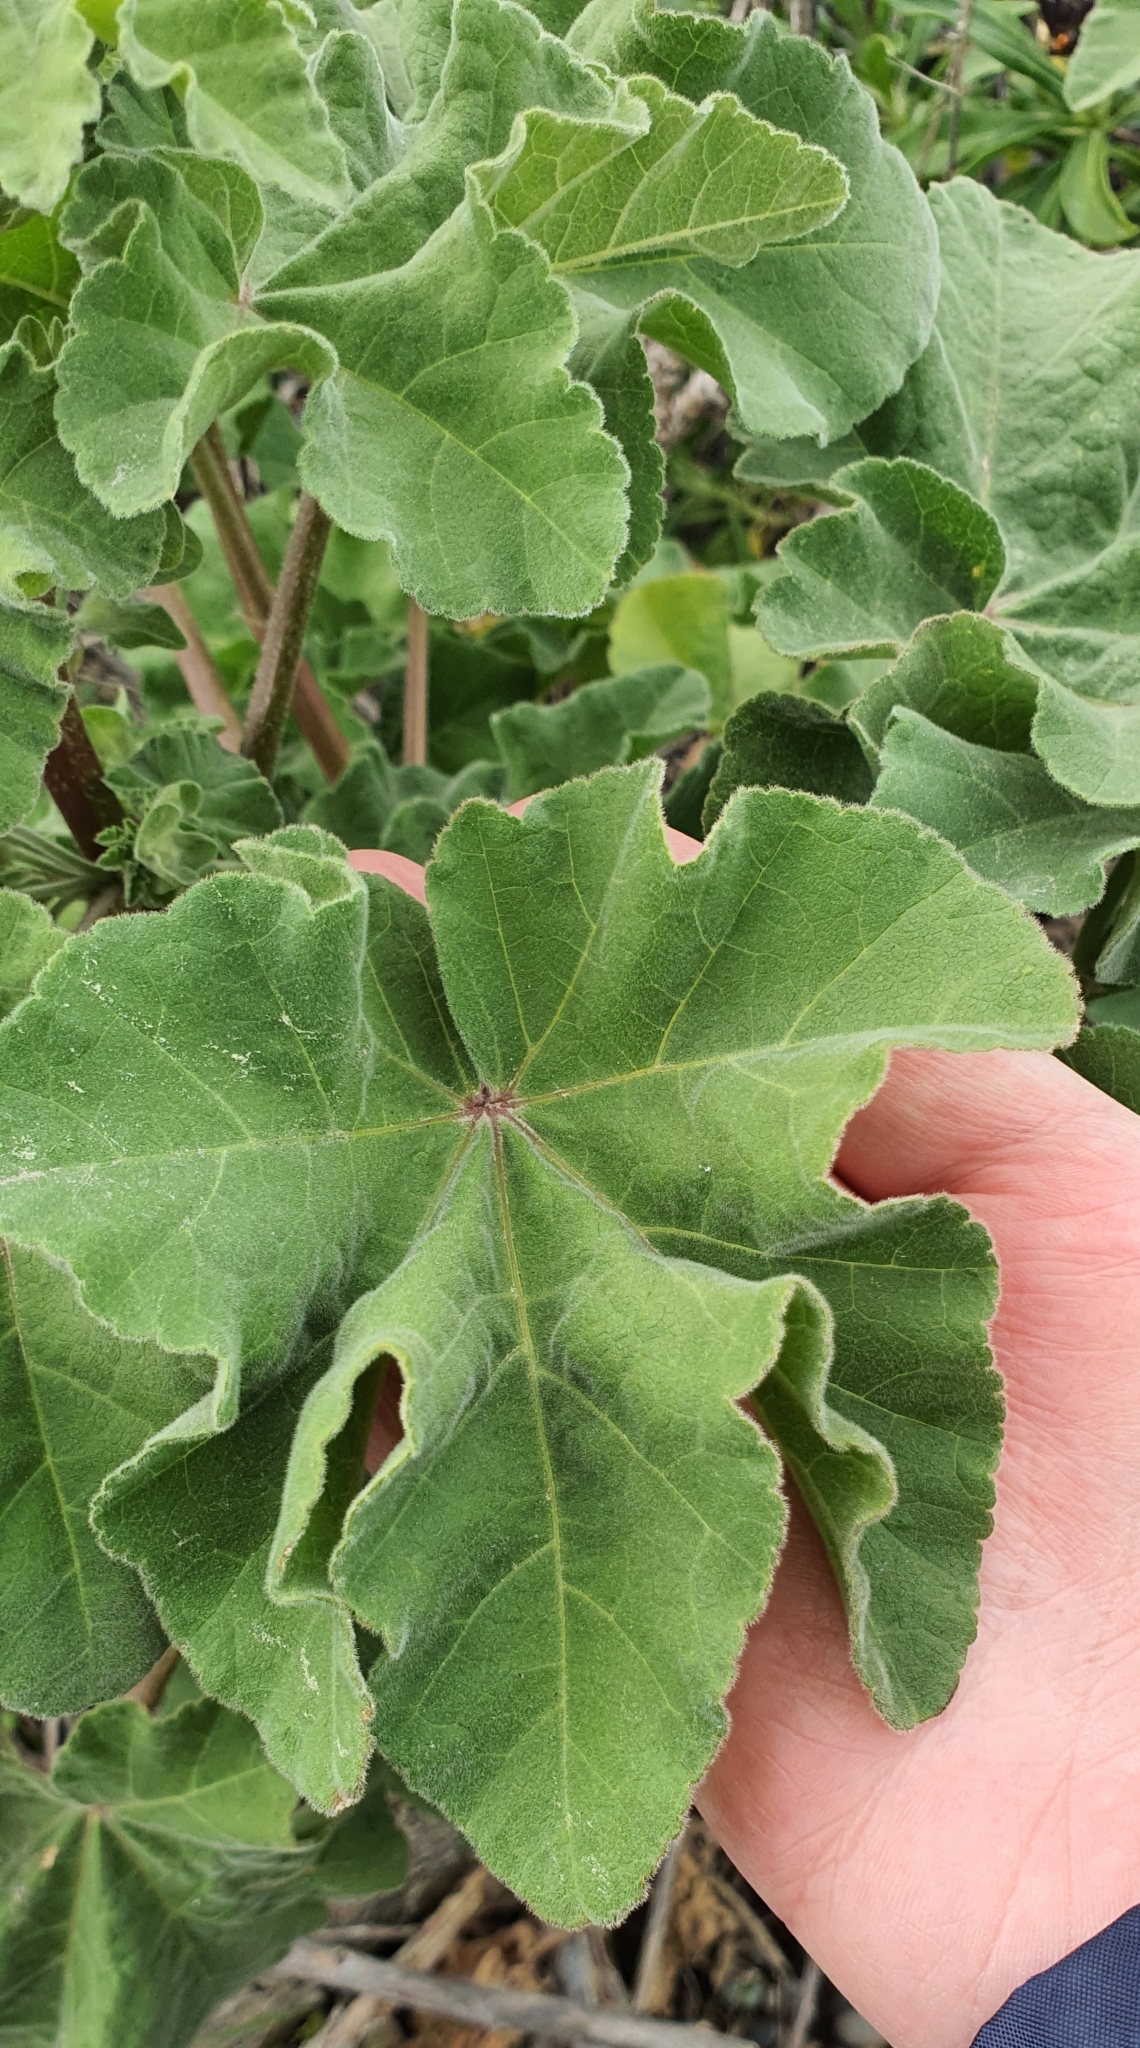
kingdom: Plantae
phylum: Tracheophyta
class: Magnoliopsida
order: Malvales
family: Malvaceae
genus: Malva
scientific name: Malva arborea
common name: Tree mallow
